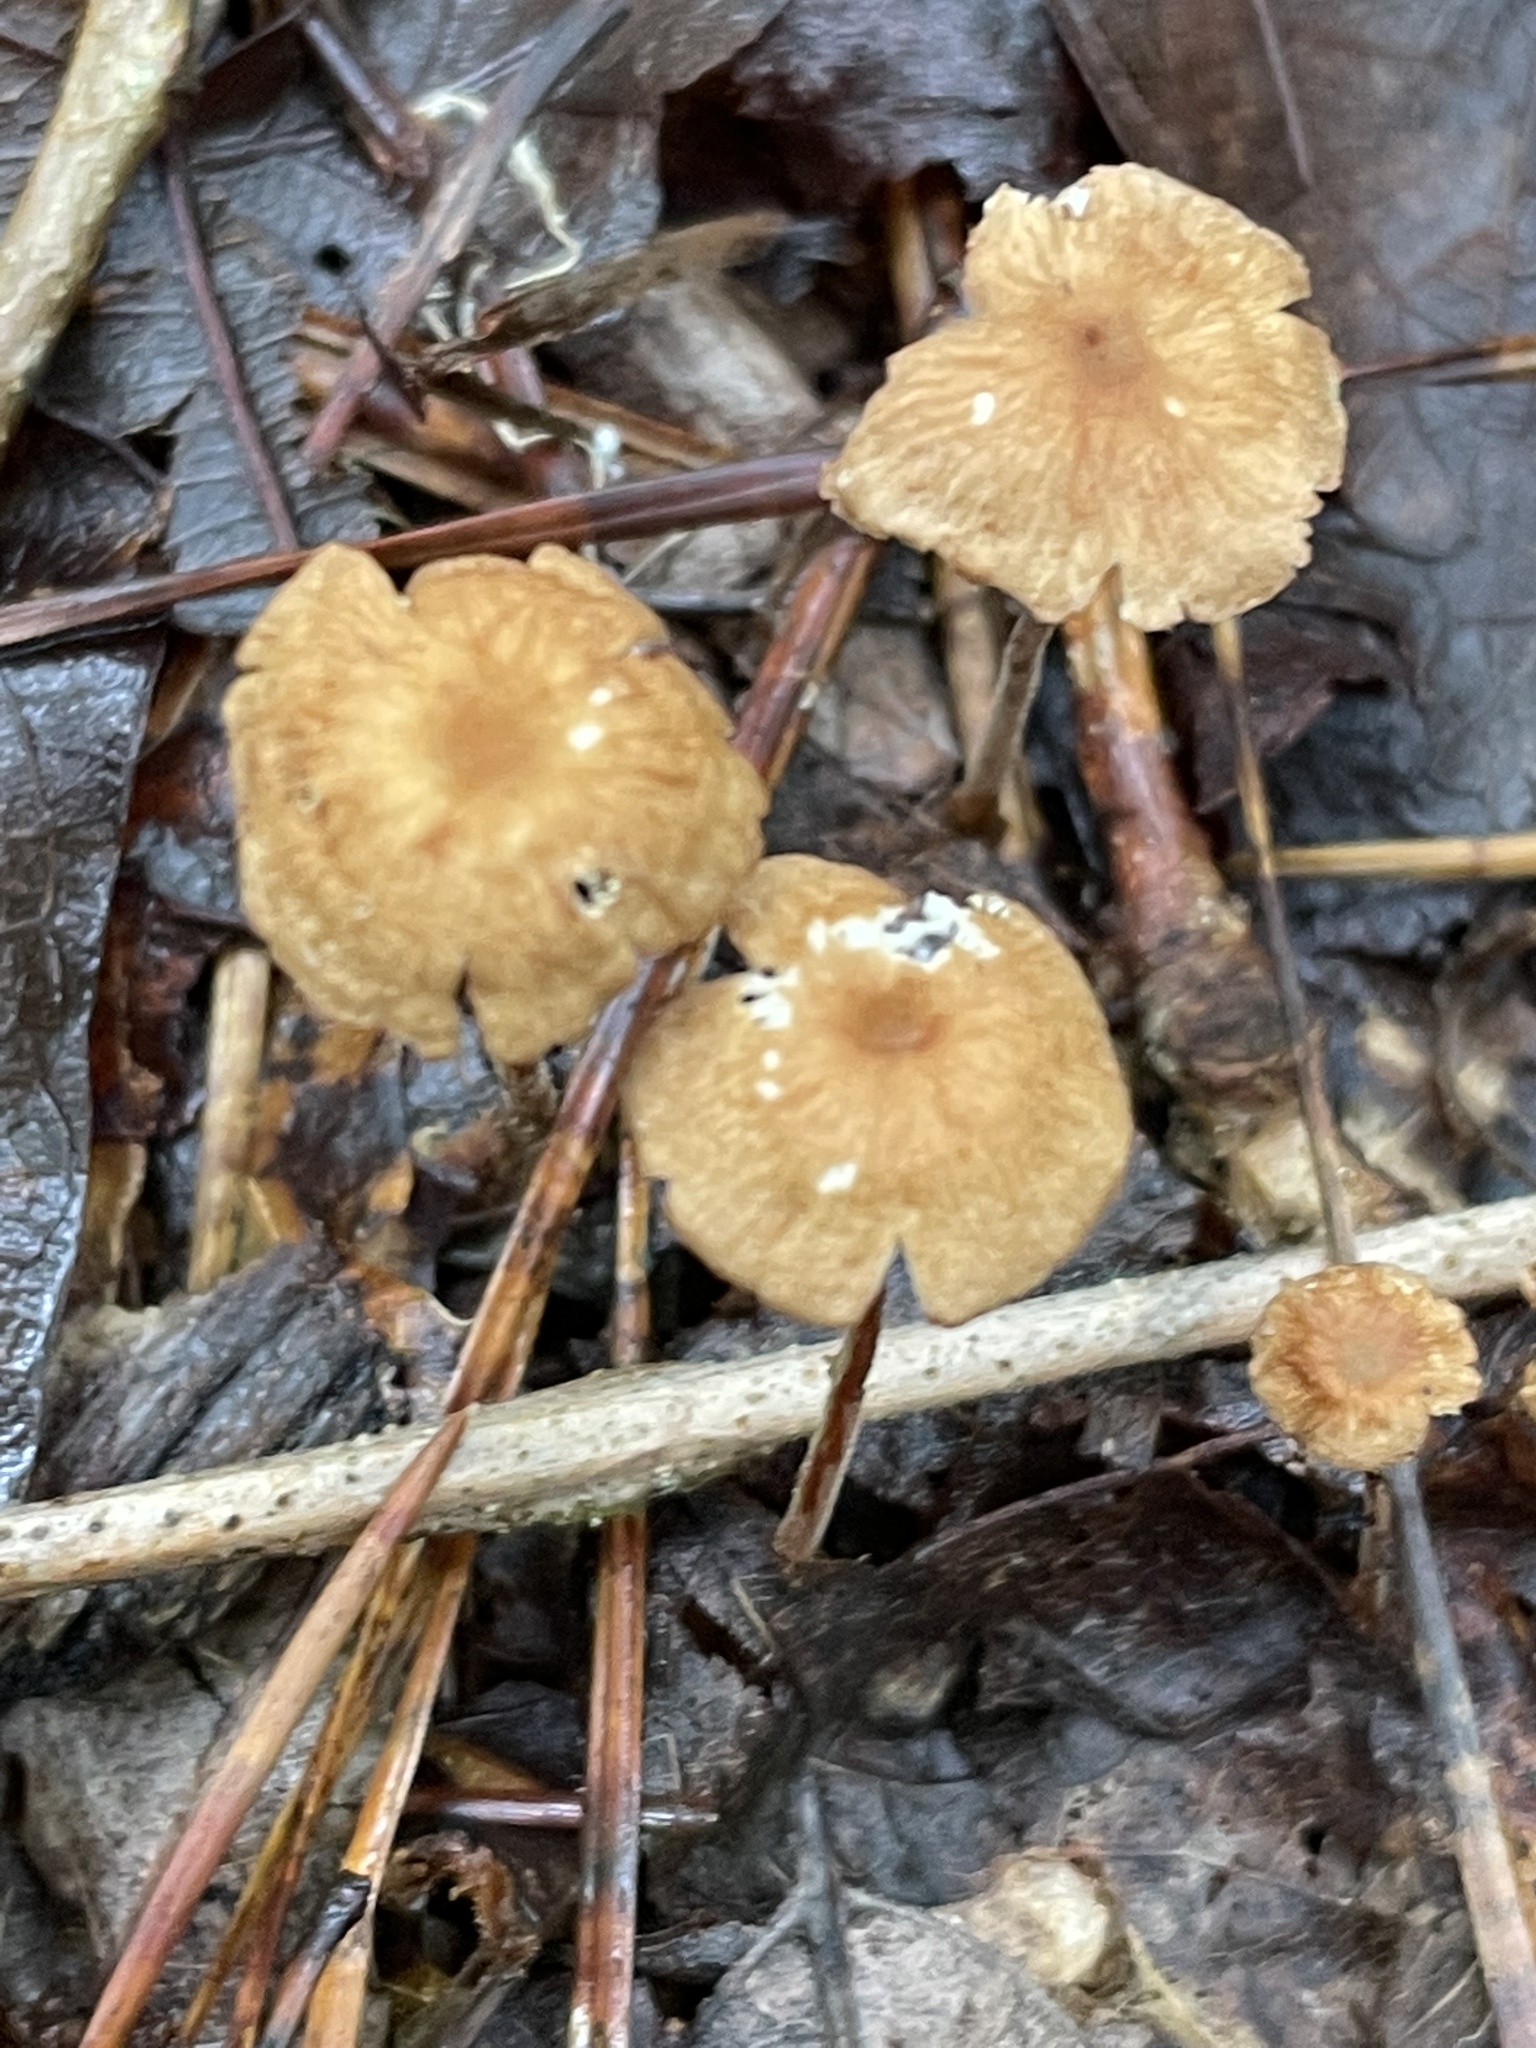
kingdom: Fungi
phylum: Basidiomycota
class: Agaricomycetes
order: Agaricales
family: Tricholomataceae
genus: Collybia
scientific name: Collybia zonata
